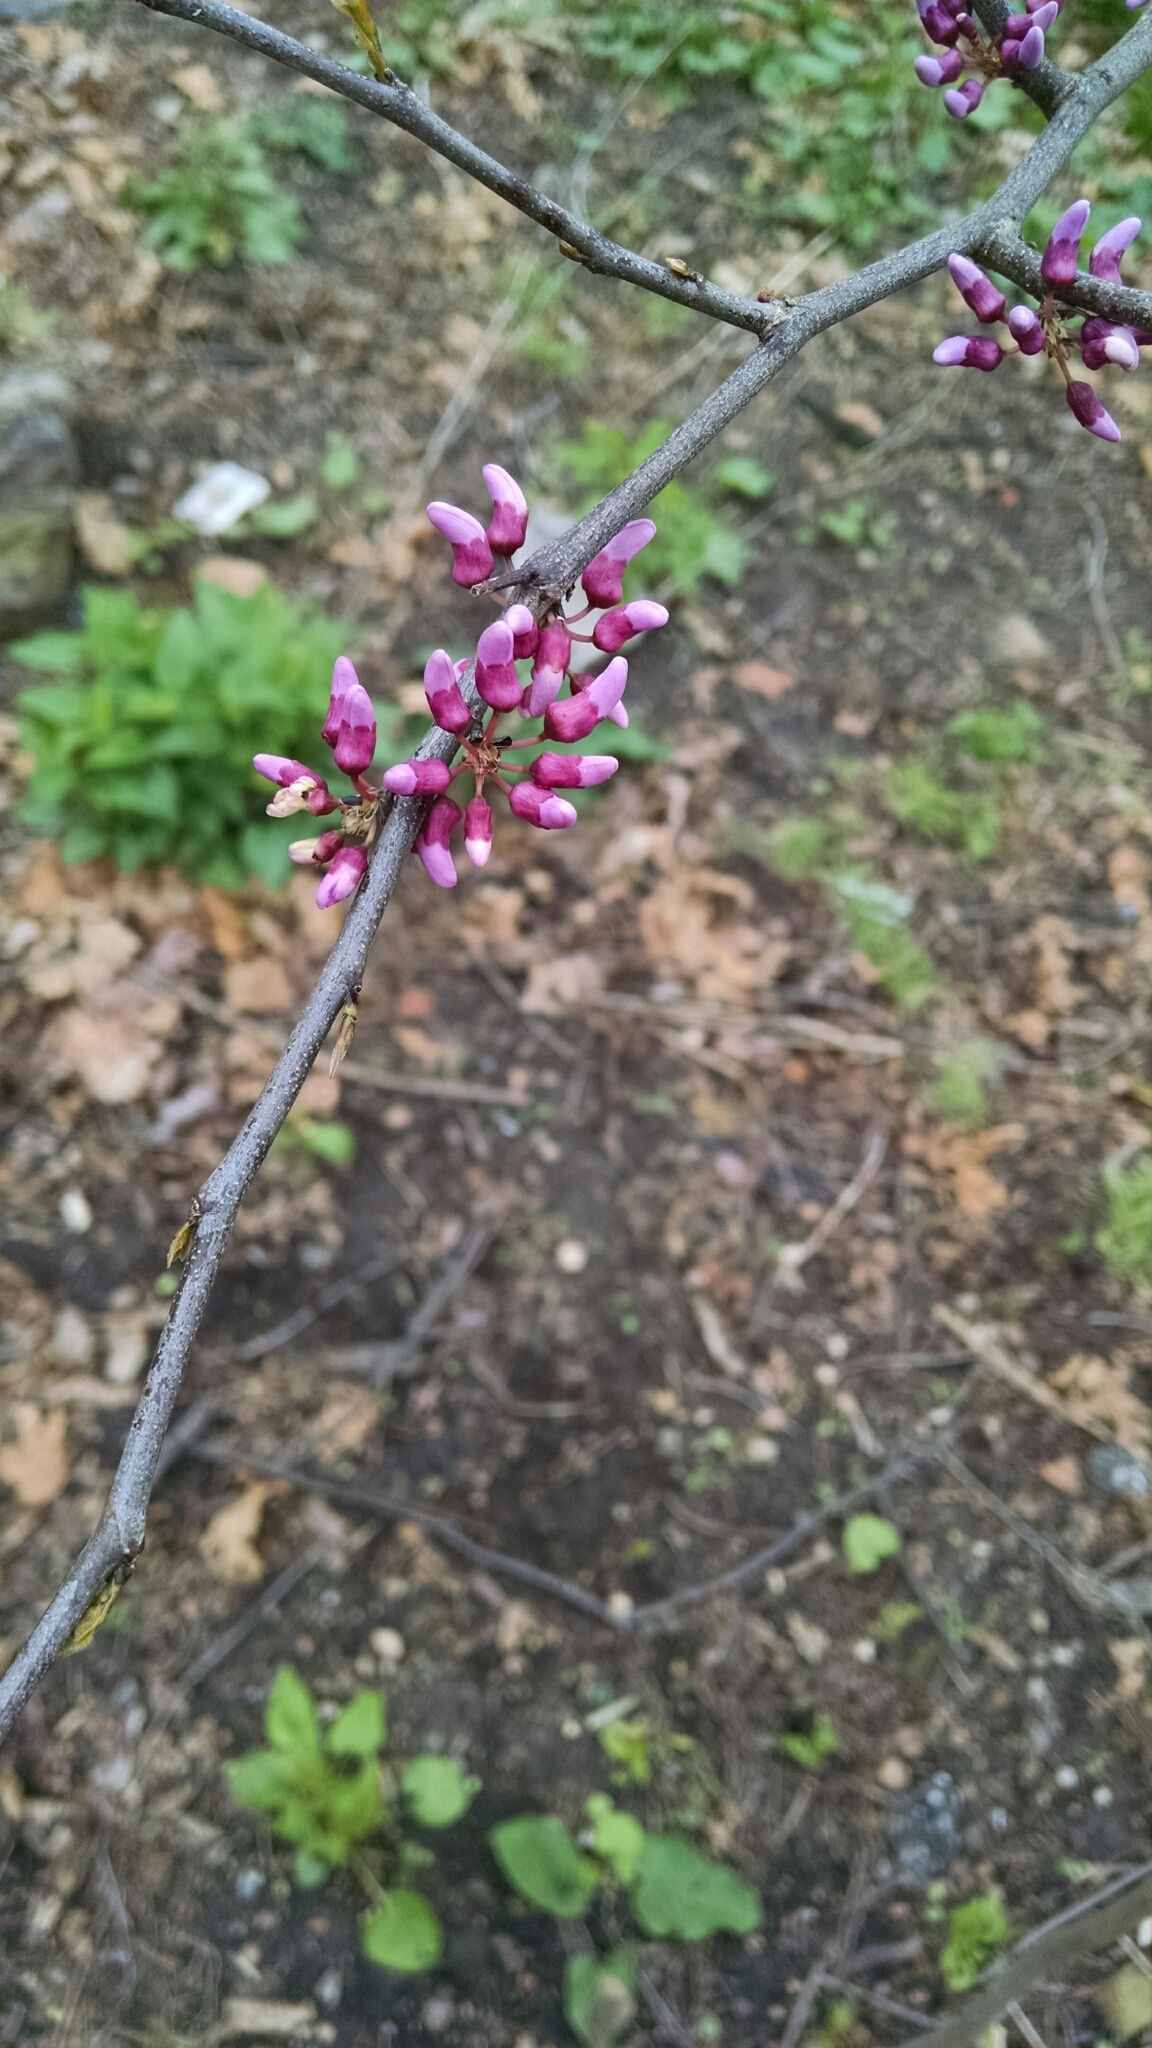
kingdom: Plantae
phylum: Tracheophyta
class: Magnoliopsida
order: Fabales
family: Fabaceae
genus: Cercis
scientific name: Cercis canadensis
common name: Eastern redbud
